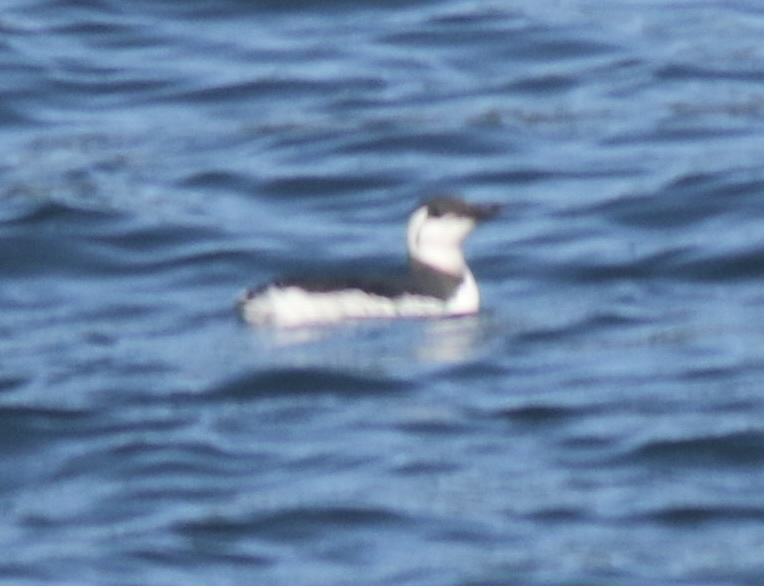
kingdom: Animalia
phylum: Chordata
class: Aves
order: Charadriiformes
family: Alcidae
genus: Uria
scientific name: Uria aalge
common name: Common murre
